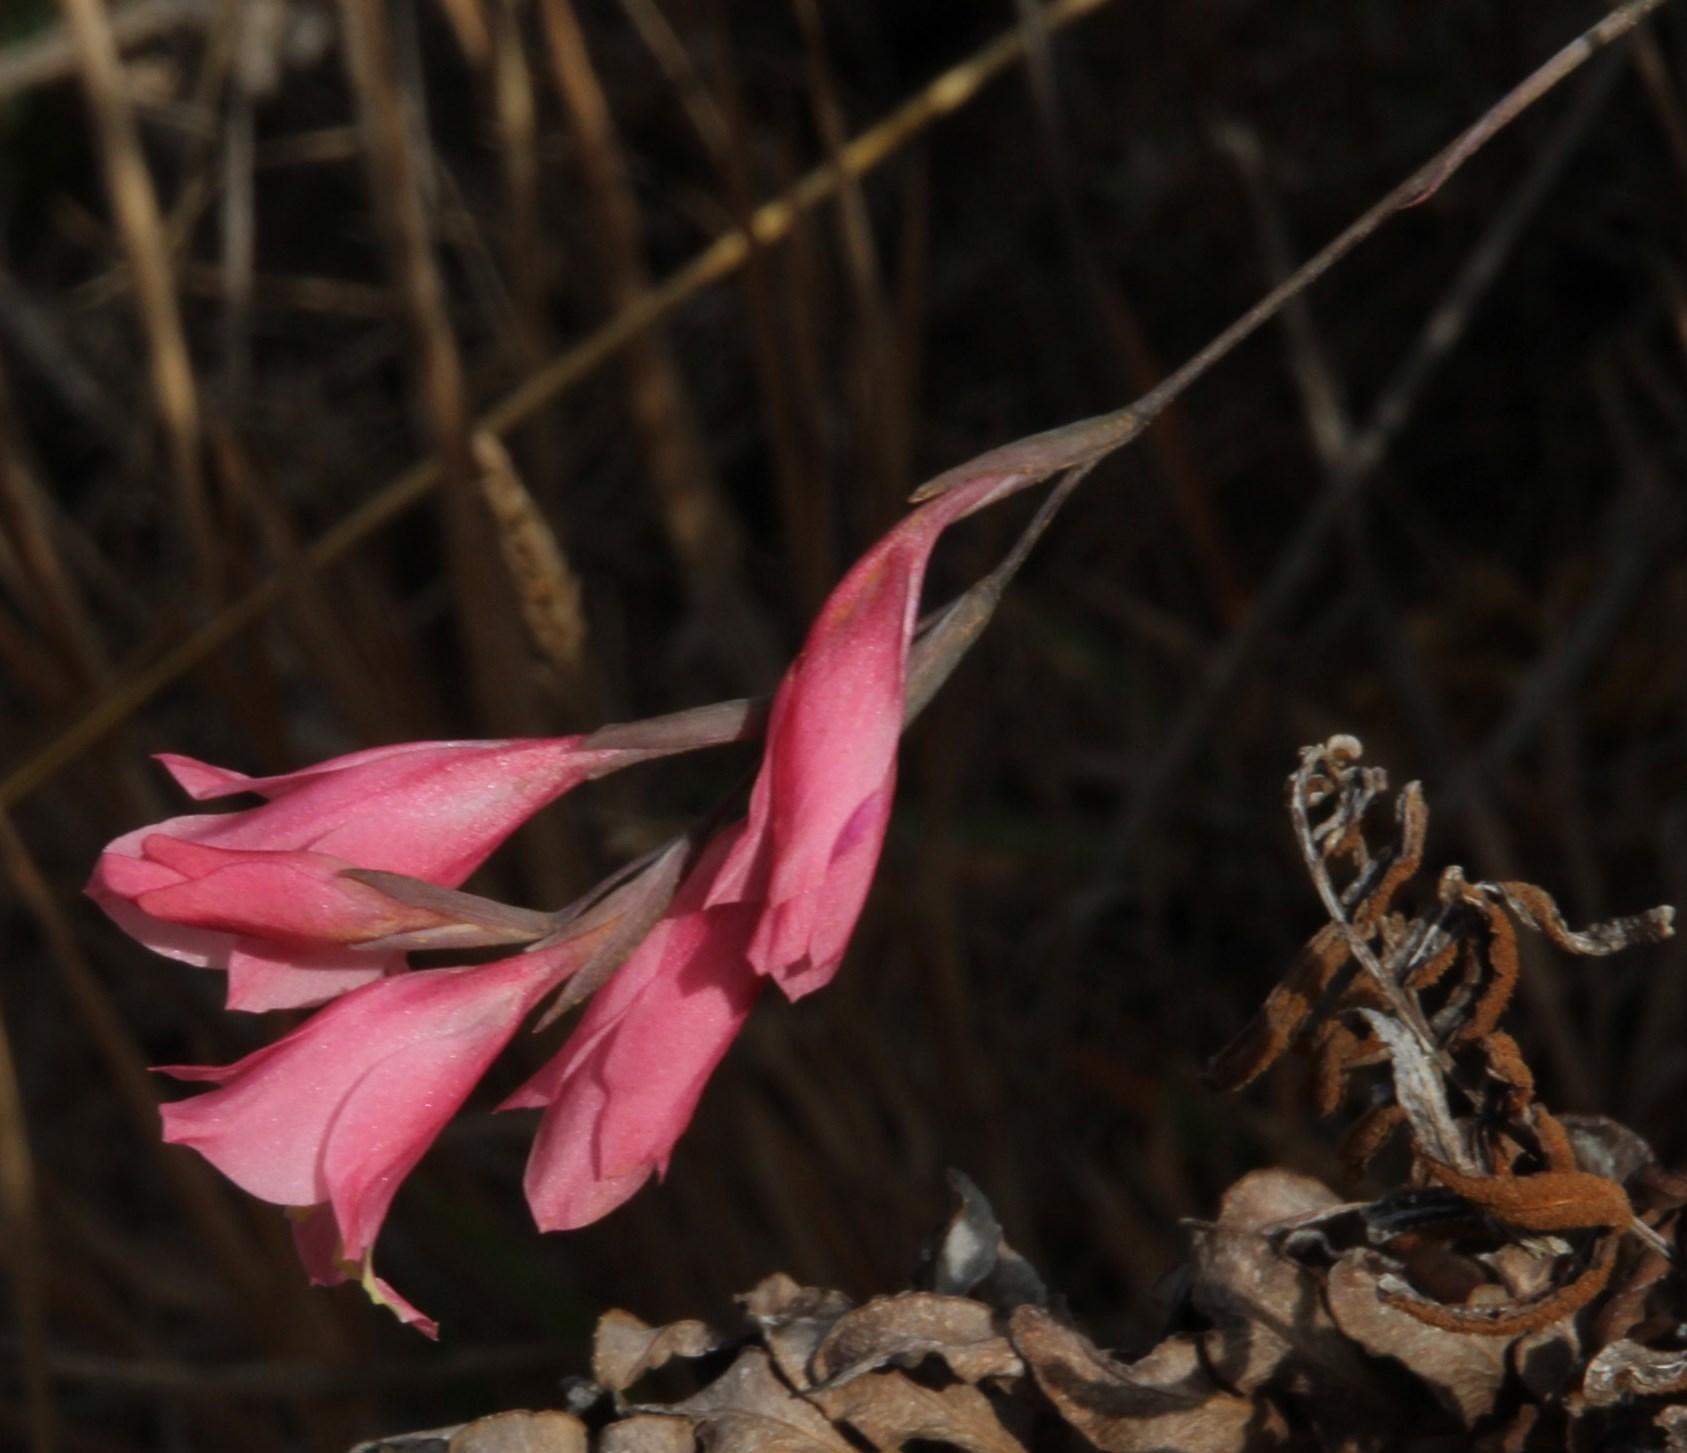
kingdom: Plantae
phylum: Tracheophyta
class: Liliopsida
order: Asparagales
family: Iridaceae
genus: Gladiolus
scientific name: Gladiolus brevifolius
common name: March pypie
